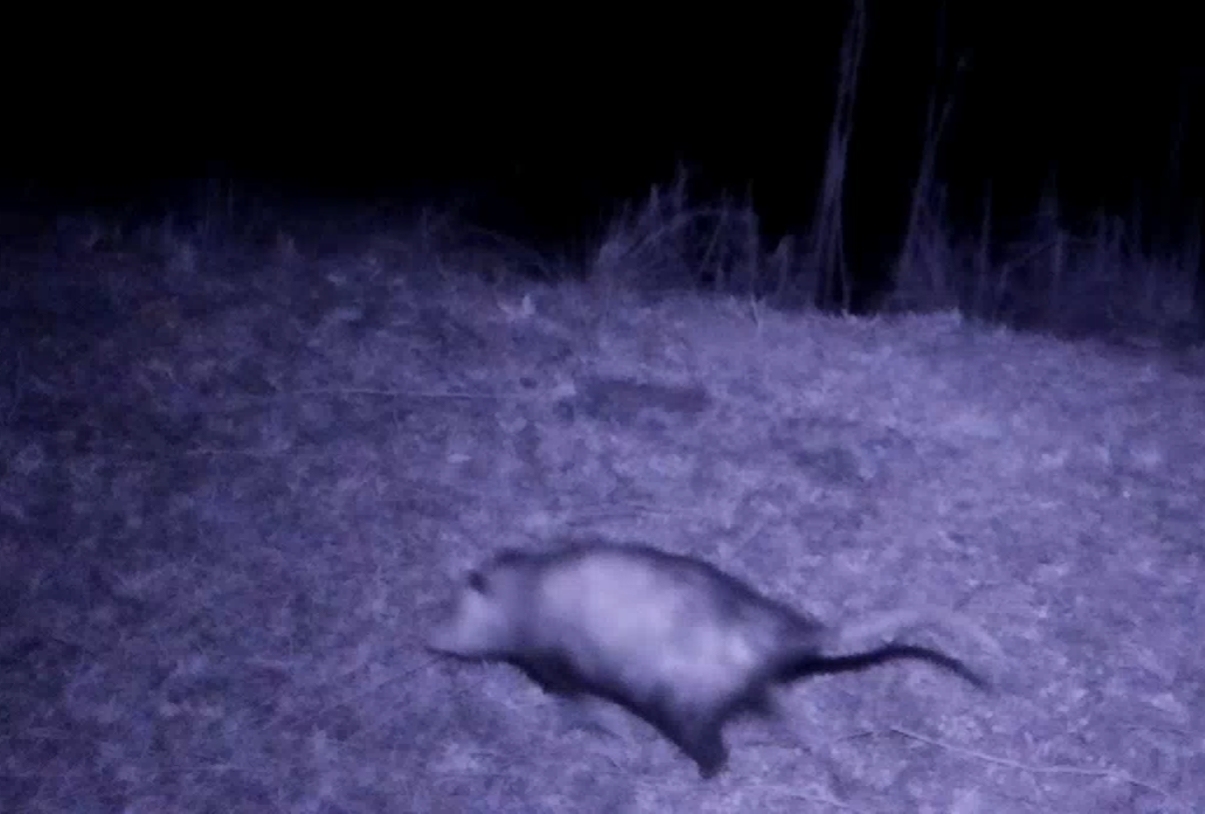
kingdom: Animalia
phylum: Chordata
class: Mammalia
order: Didelphimorphia
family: Didelphidae
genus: Didelphis
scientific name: Didelphis virginiana
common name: Virginia opossum
